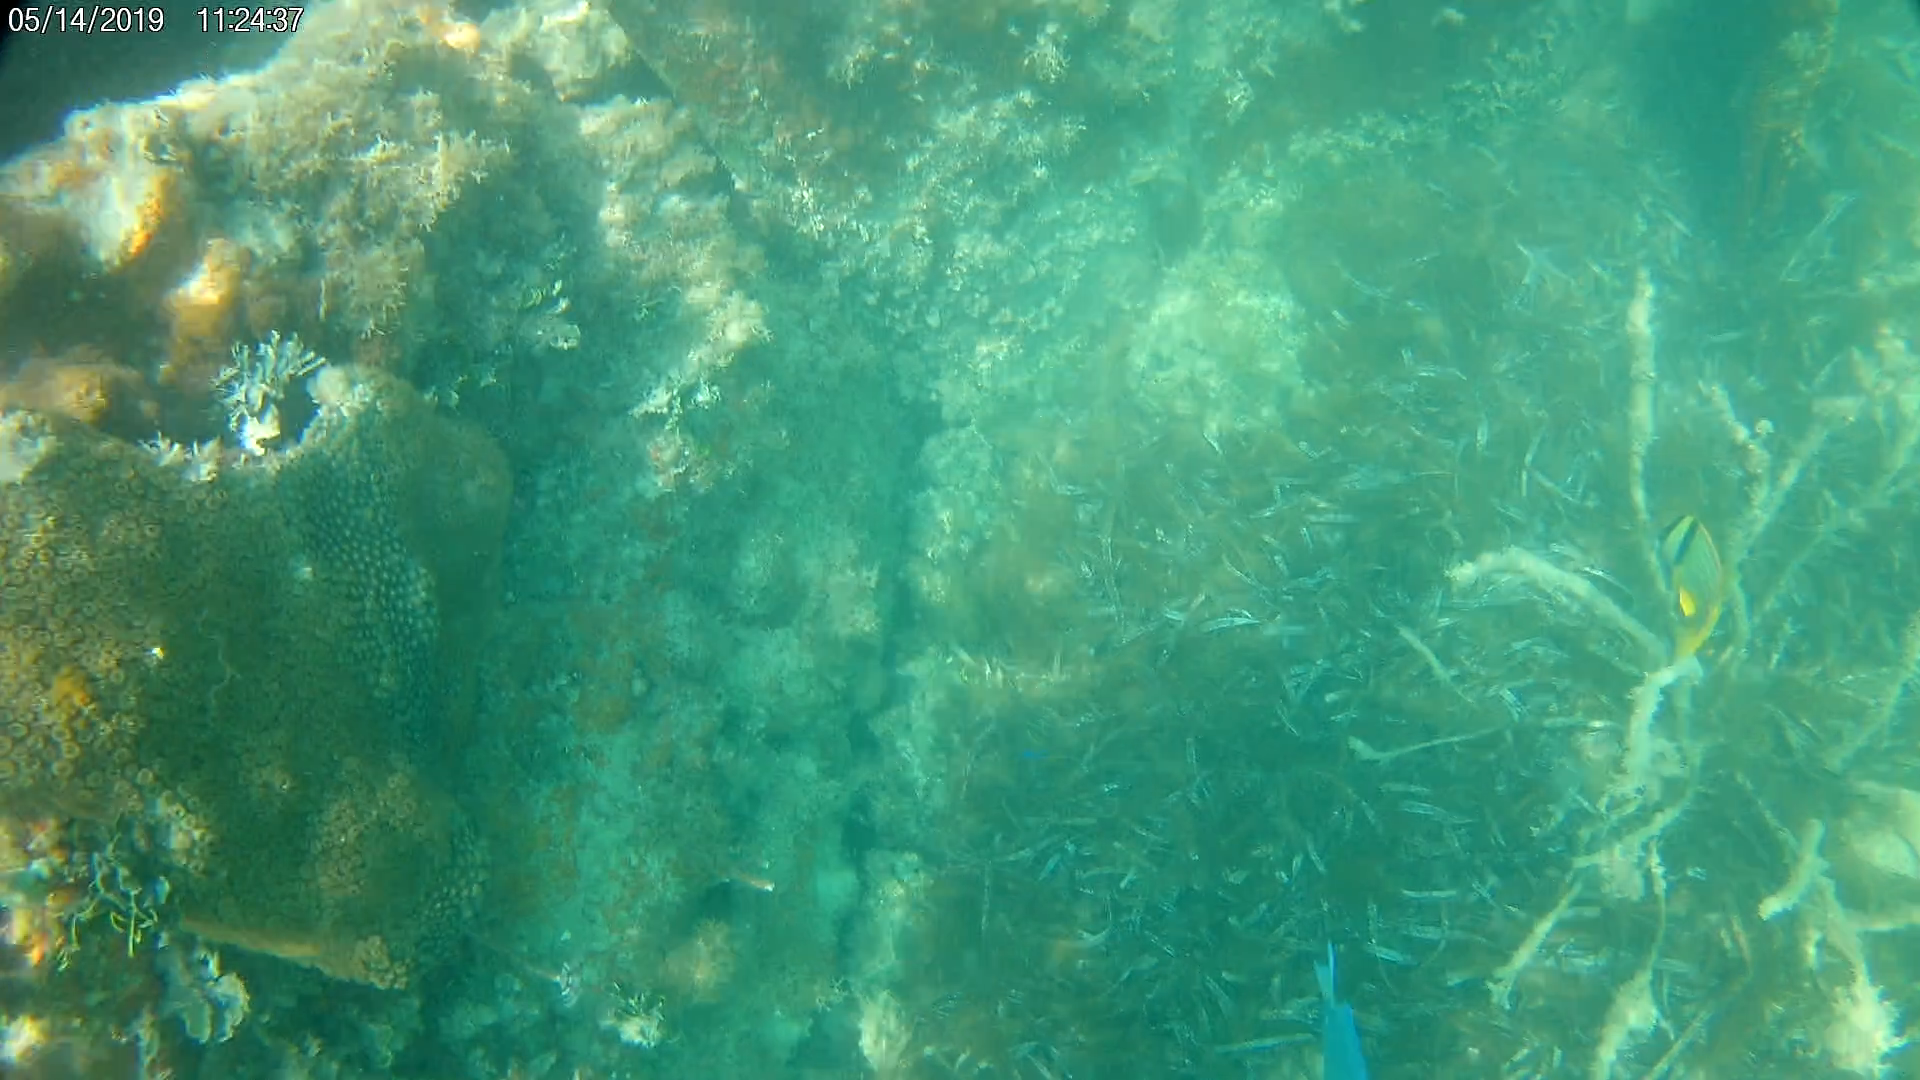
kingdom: Animalia
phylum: Chordata
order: Perciformes
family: Haemulidae
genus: Anisotremus
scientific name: Anisotremus virginicus
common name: Porkfish
